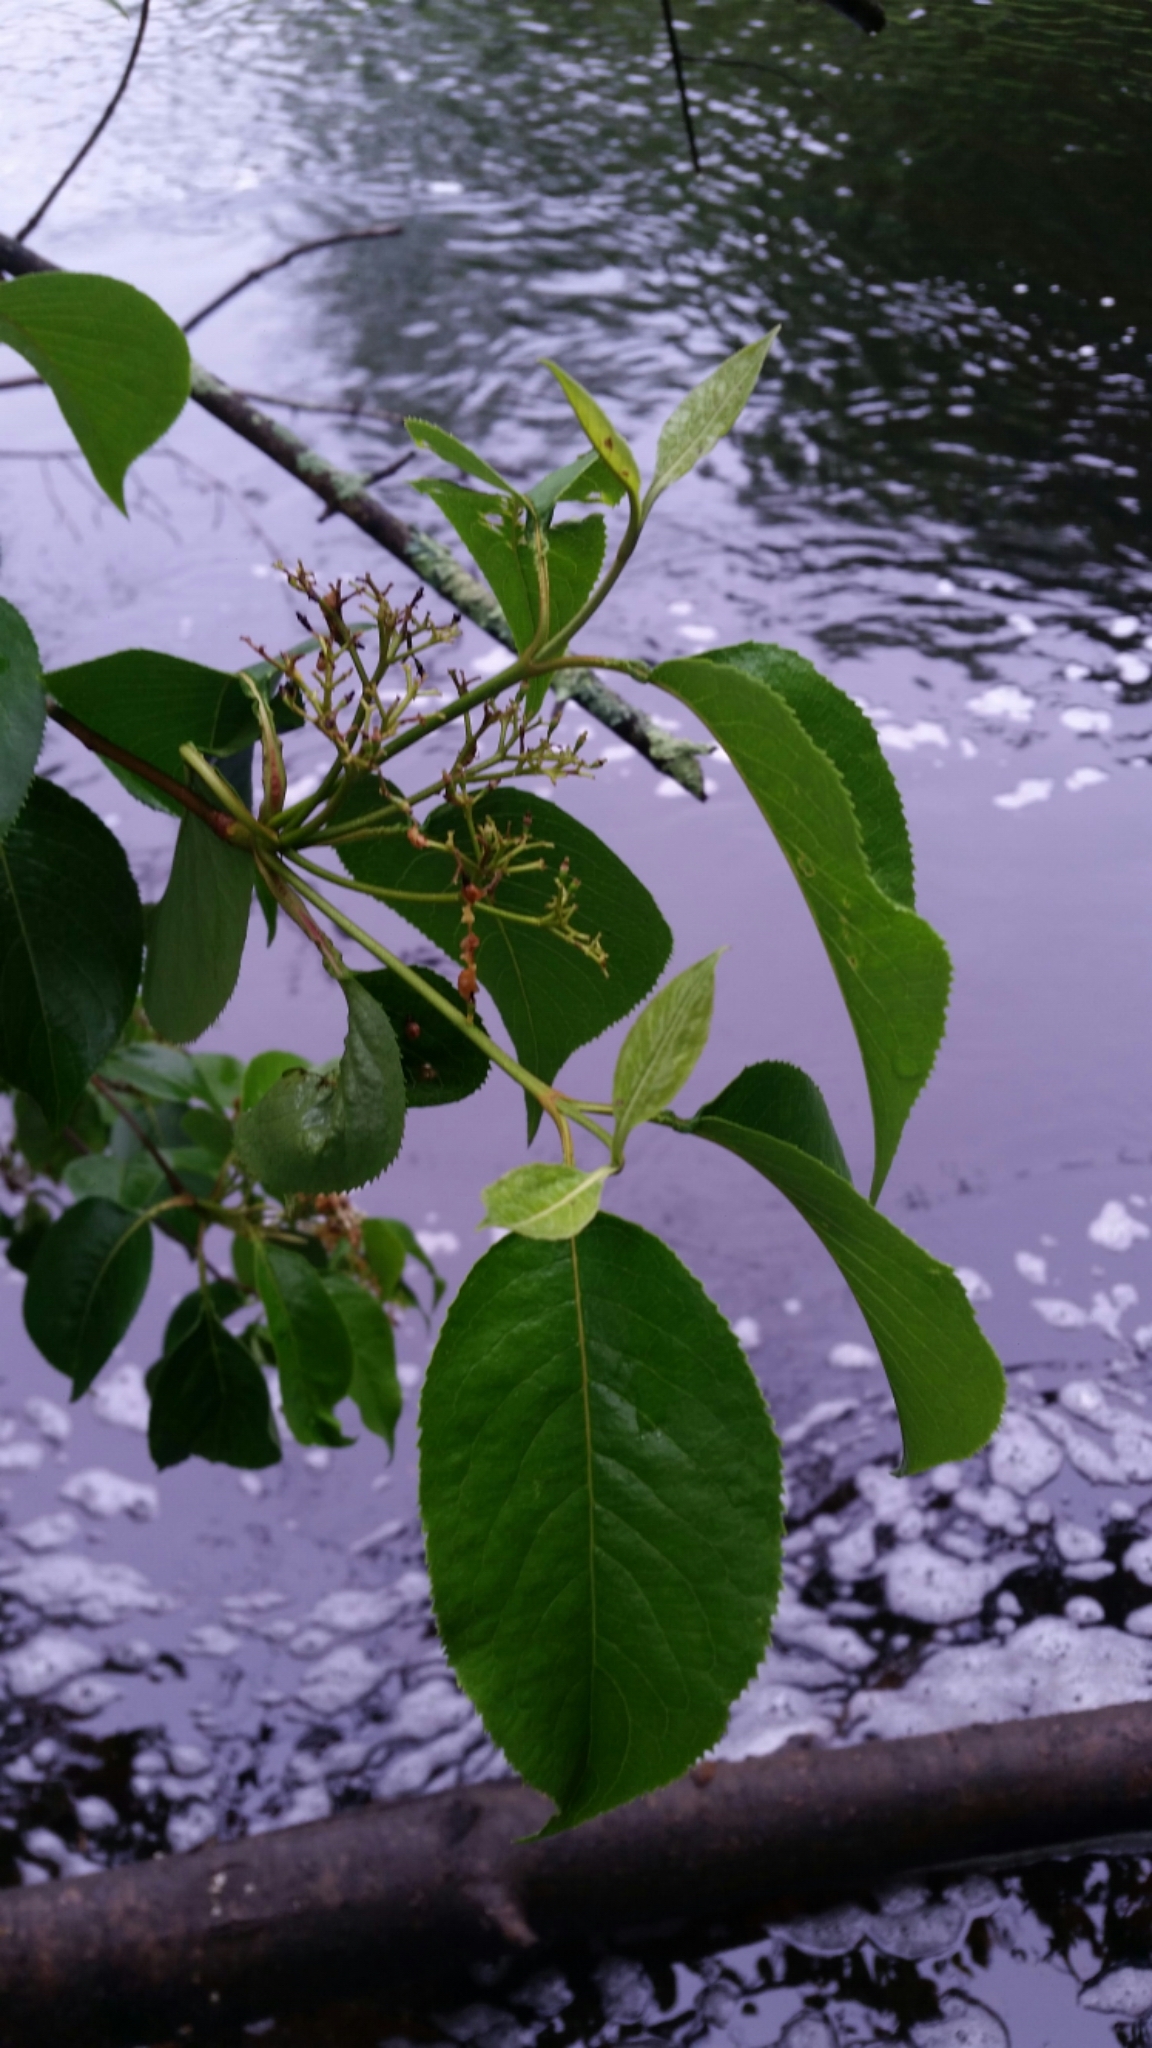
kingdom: Plantae
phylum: Tracheophyta
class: Magnoliopsida
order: Dipsacales
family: Viburnaceae
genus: Viburnum
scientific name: Viburnum lentago
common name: Black haw
